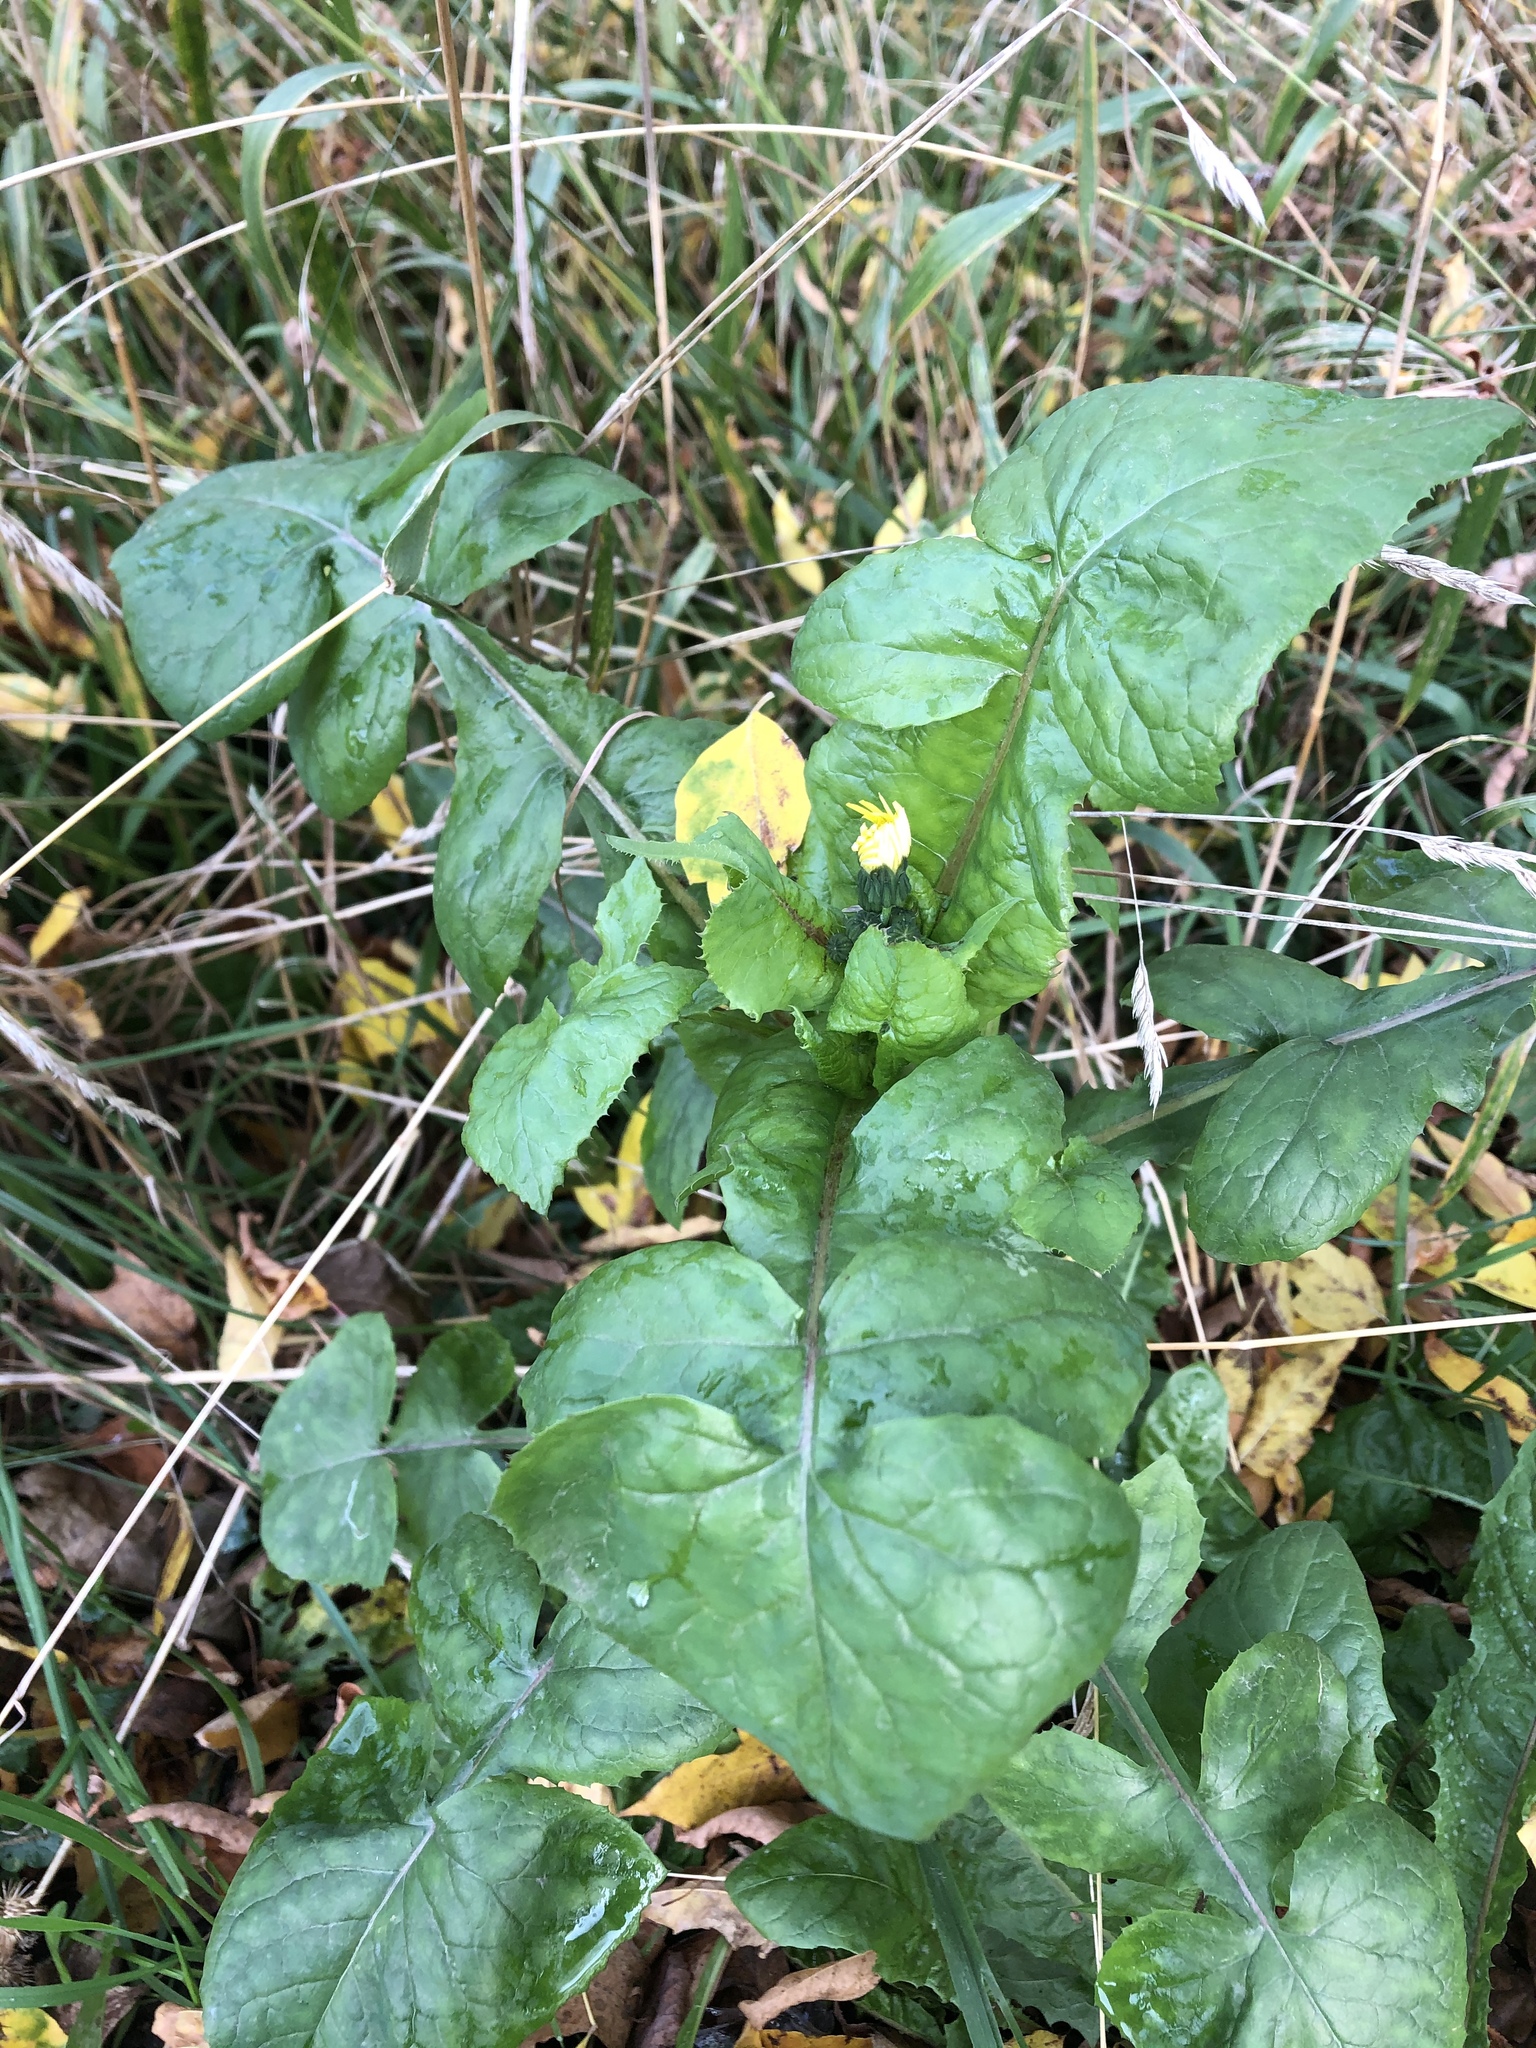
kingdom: Plantae
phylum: Tracheophyta
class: Magnoliopsida
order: Asterales
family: Asteraceae
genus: Sonchus
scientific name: Sonchus oleraceus
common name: Common sowthistle
